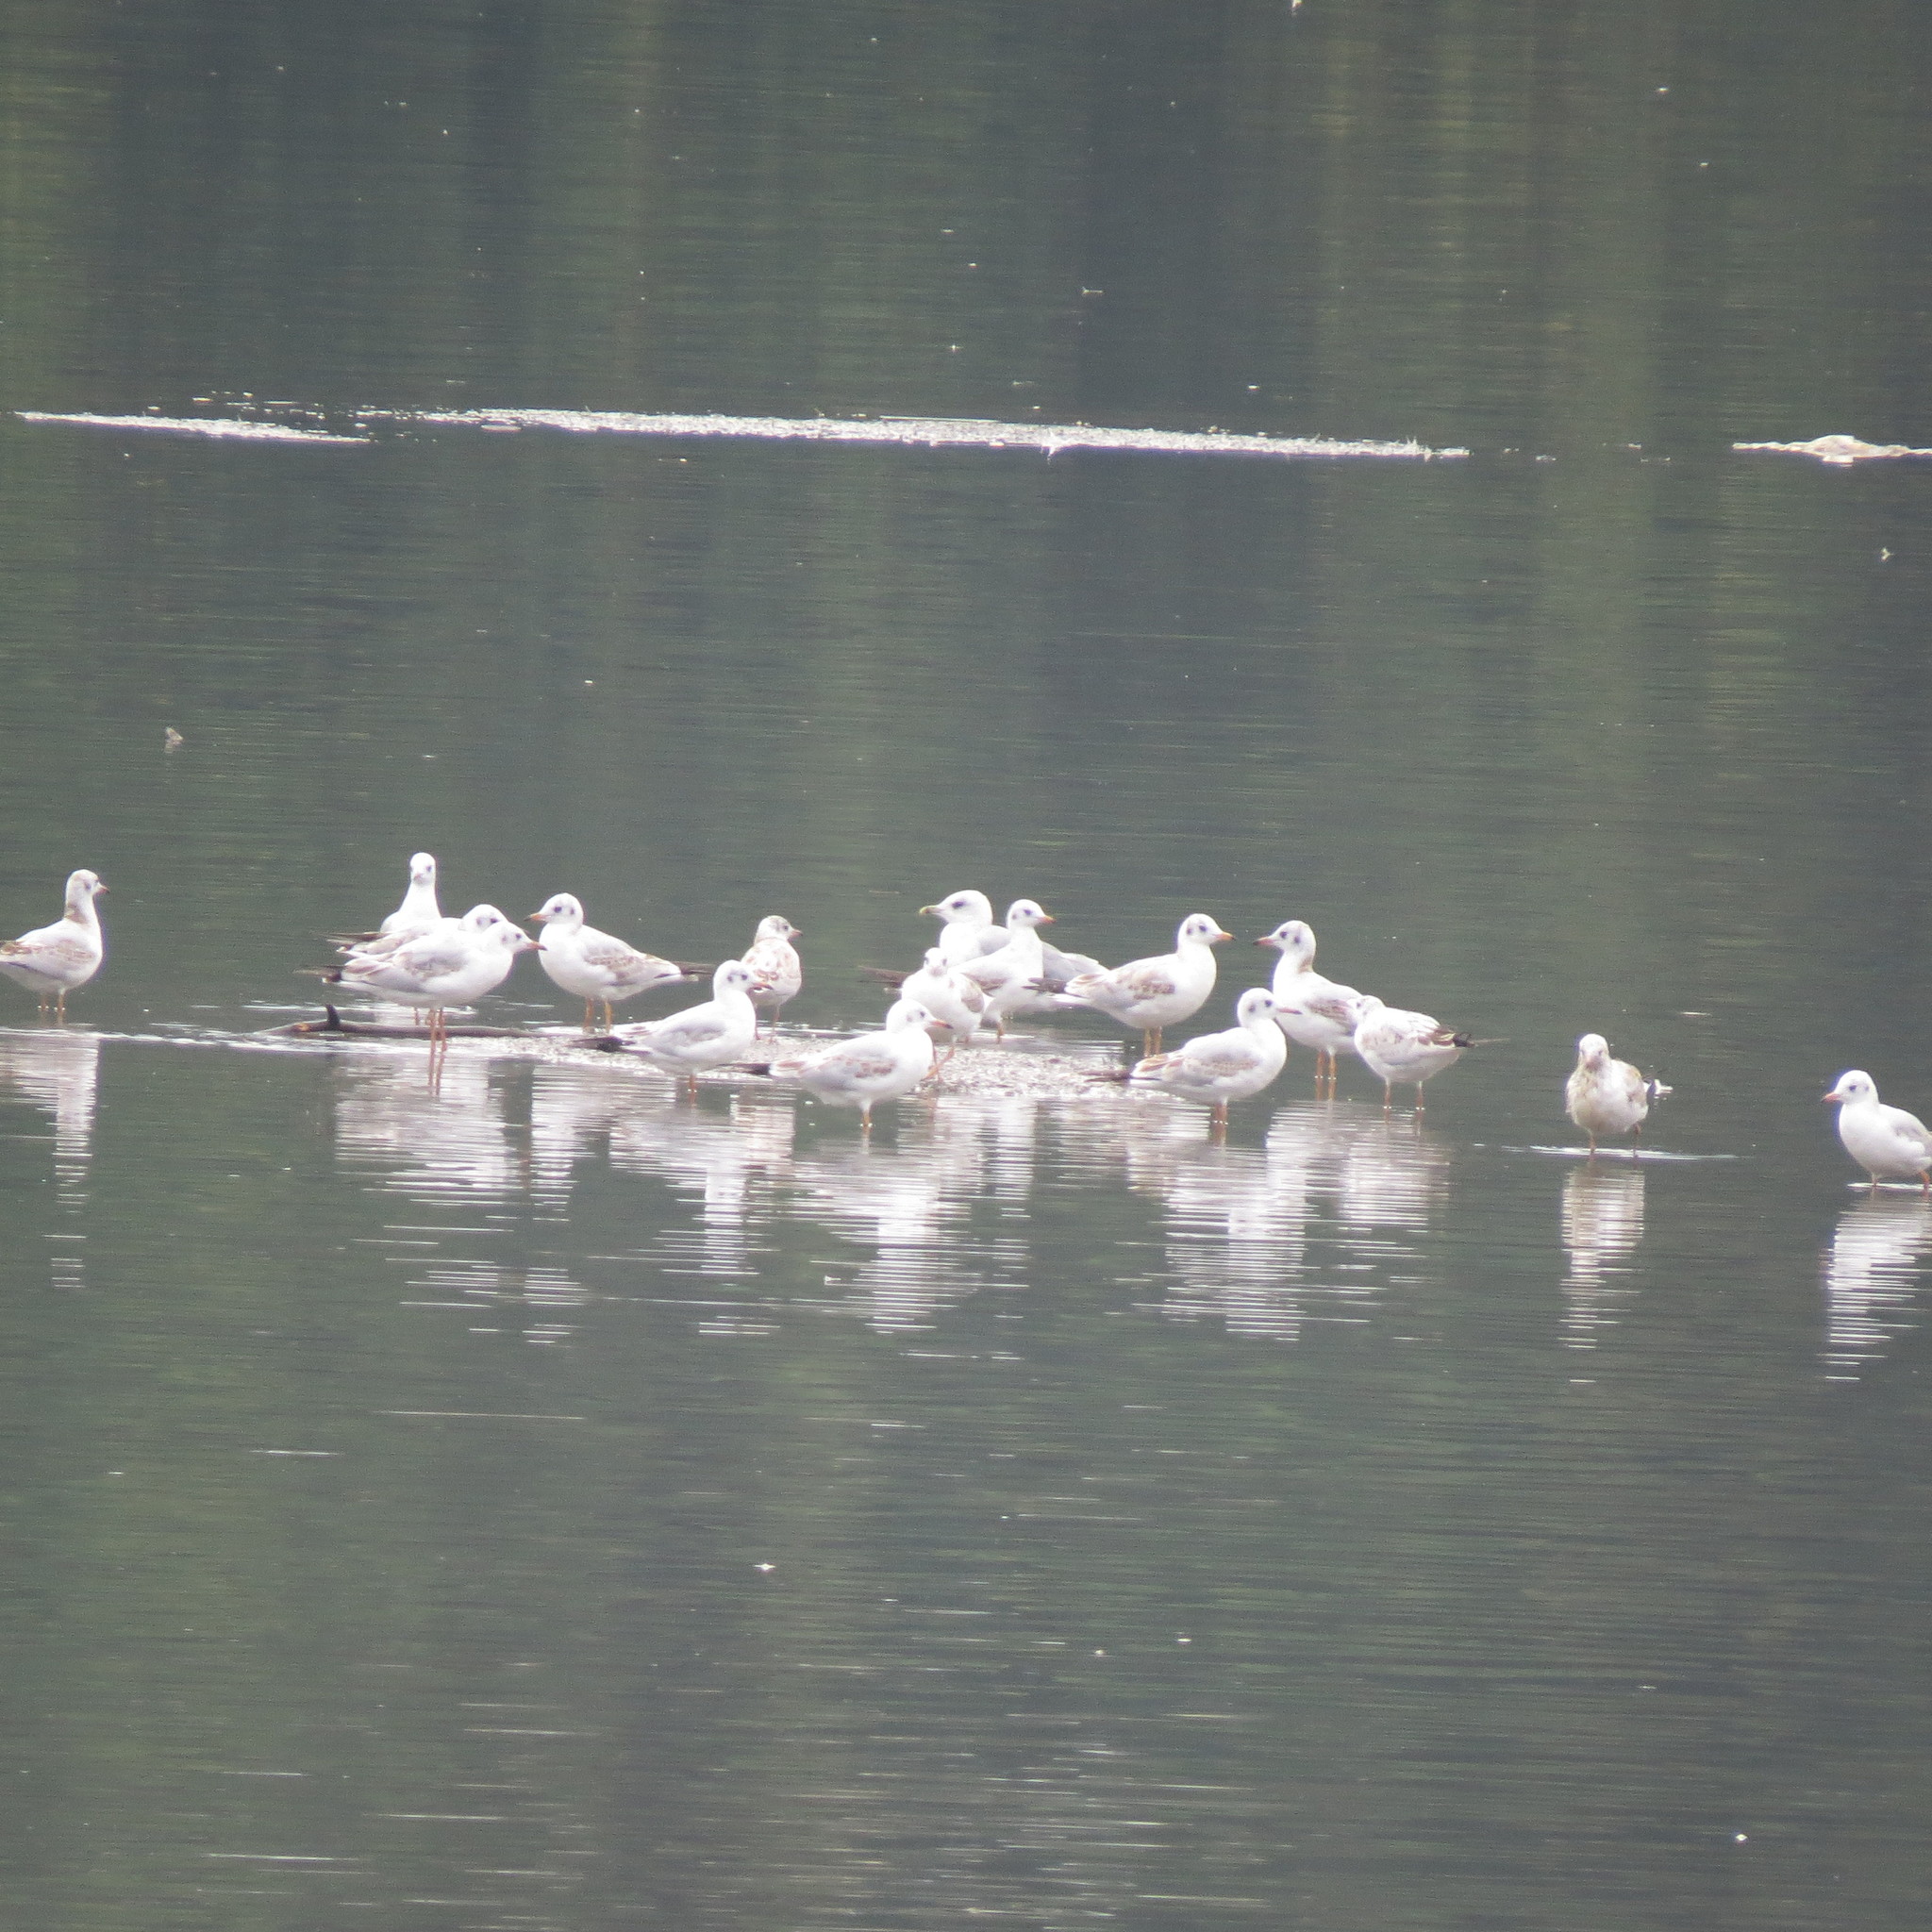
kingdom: Animalia
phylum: Chordata
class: Aves
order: Charadriiformes
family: Laridae
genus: Chroicocephalus
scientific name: Chroicocephalus ridibundus
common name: Black-headed gull
